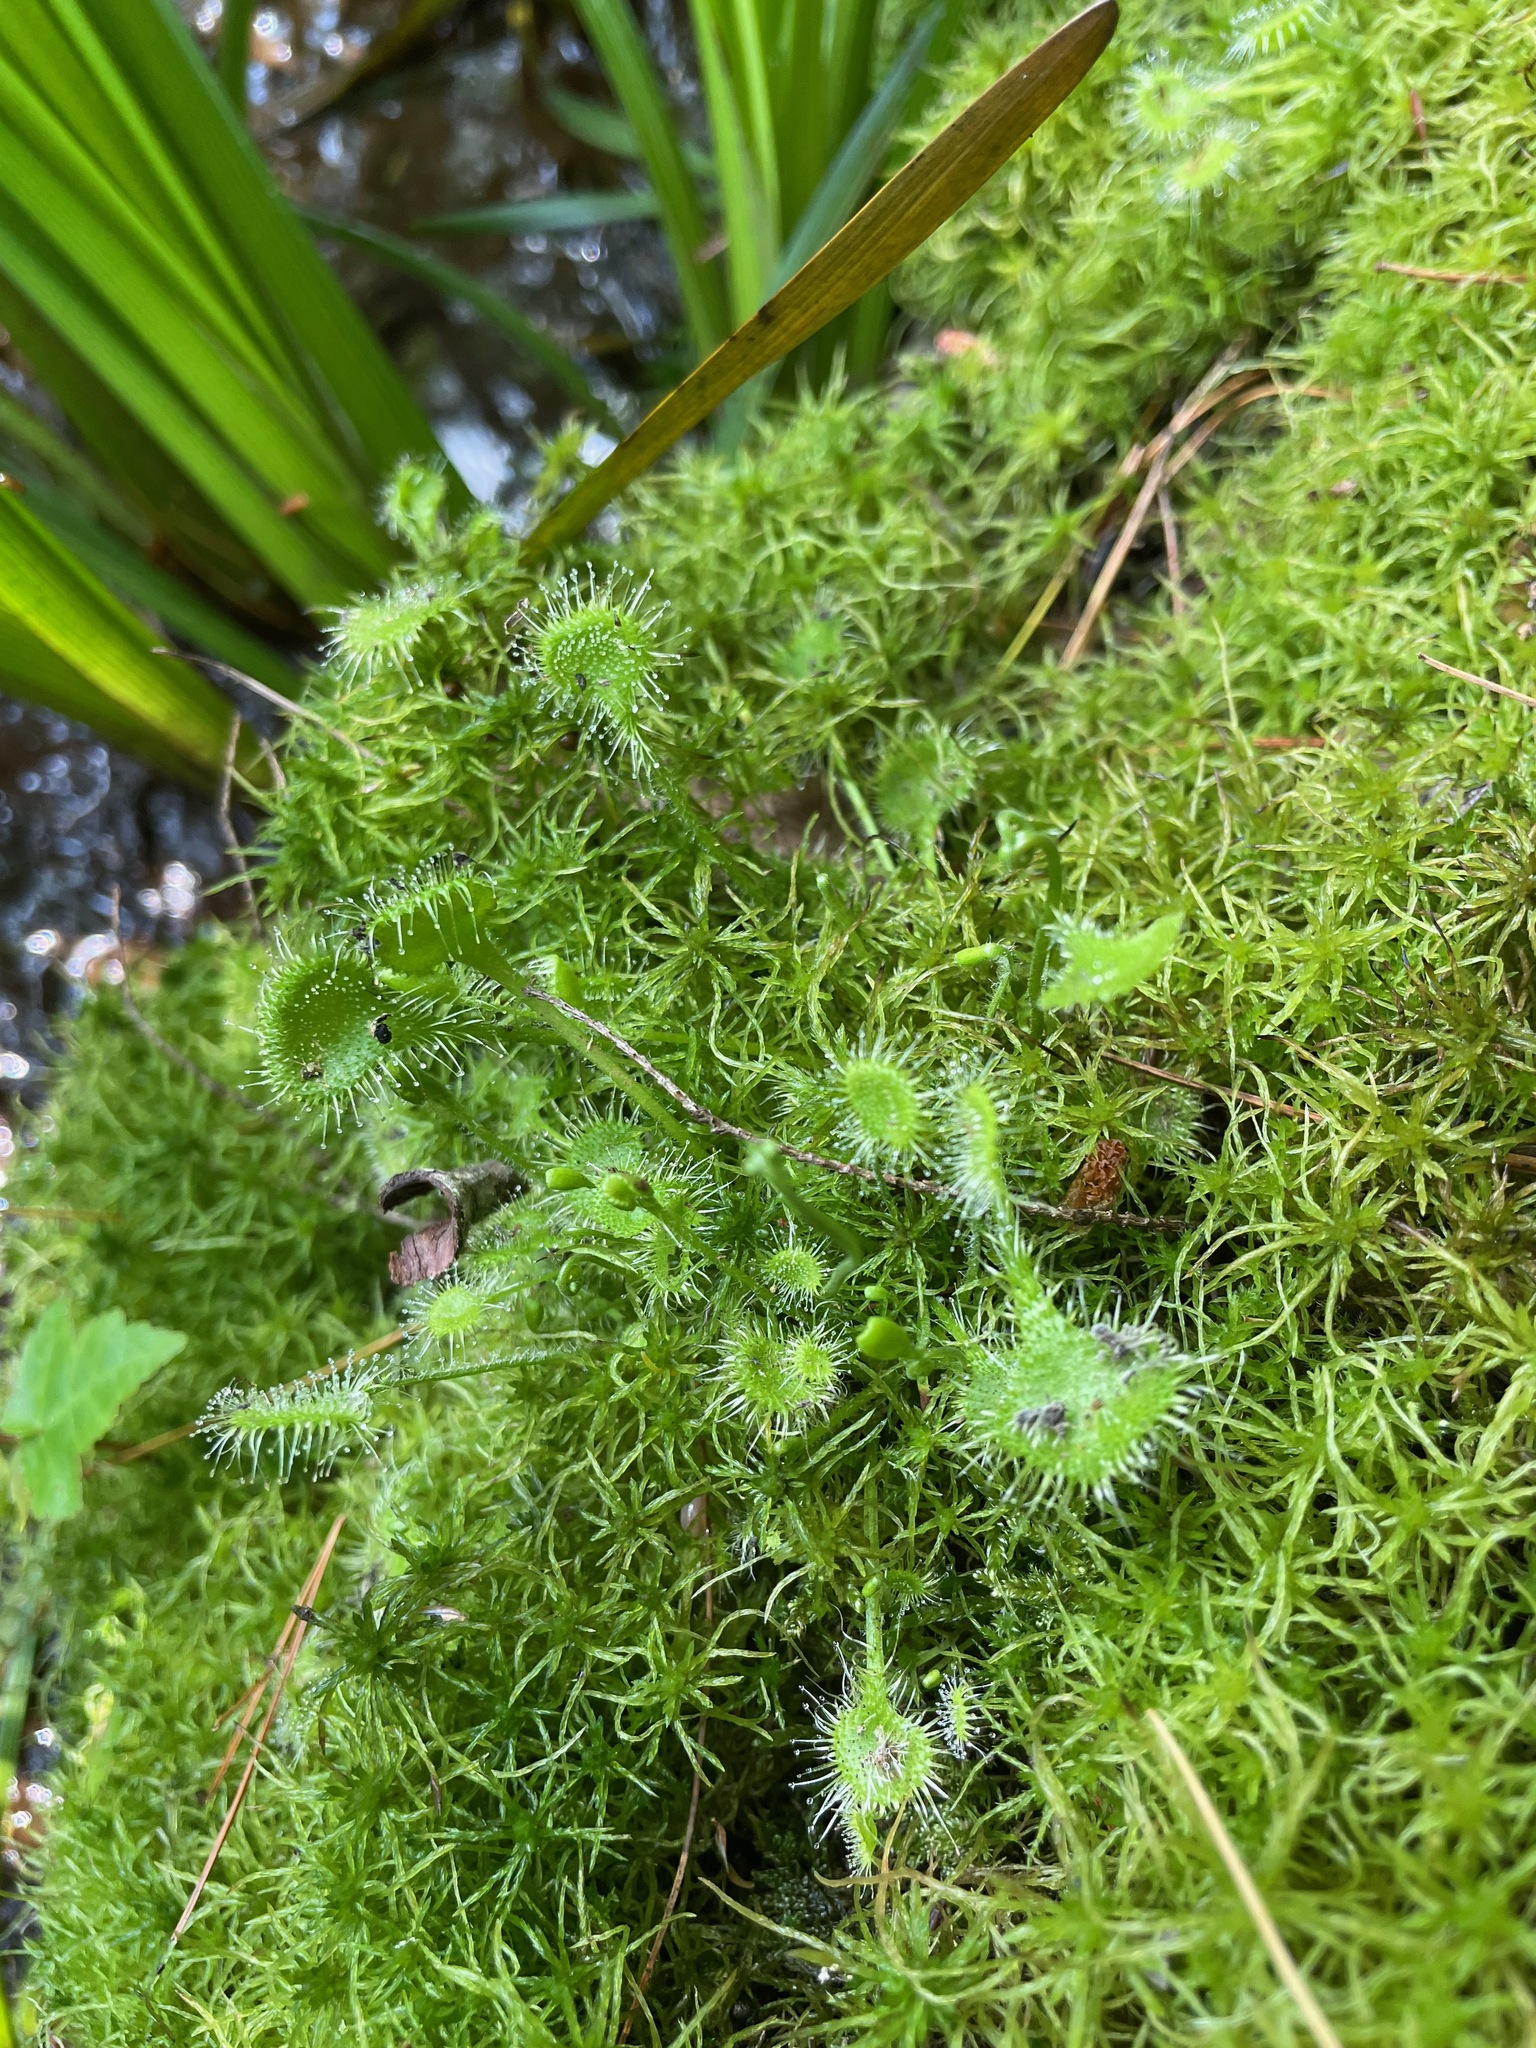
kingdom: Plantae
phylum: Tracheophyta
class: Magnoliopsida
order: Caryophyllales
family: Droseraceae
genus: Drosera
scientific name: Drosera rotundifolia
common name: Round-leaved sundew
